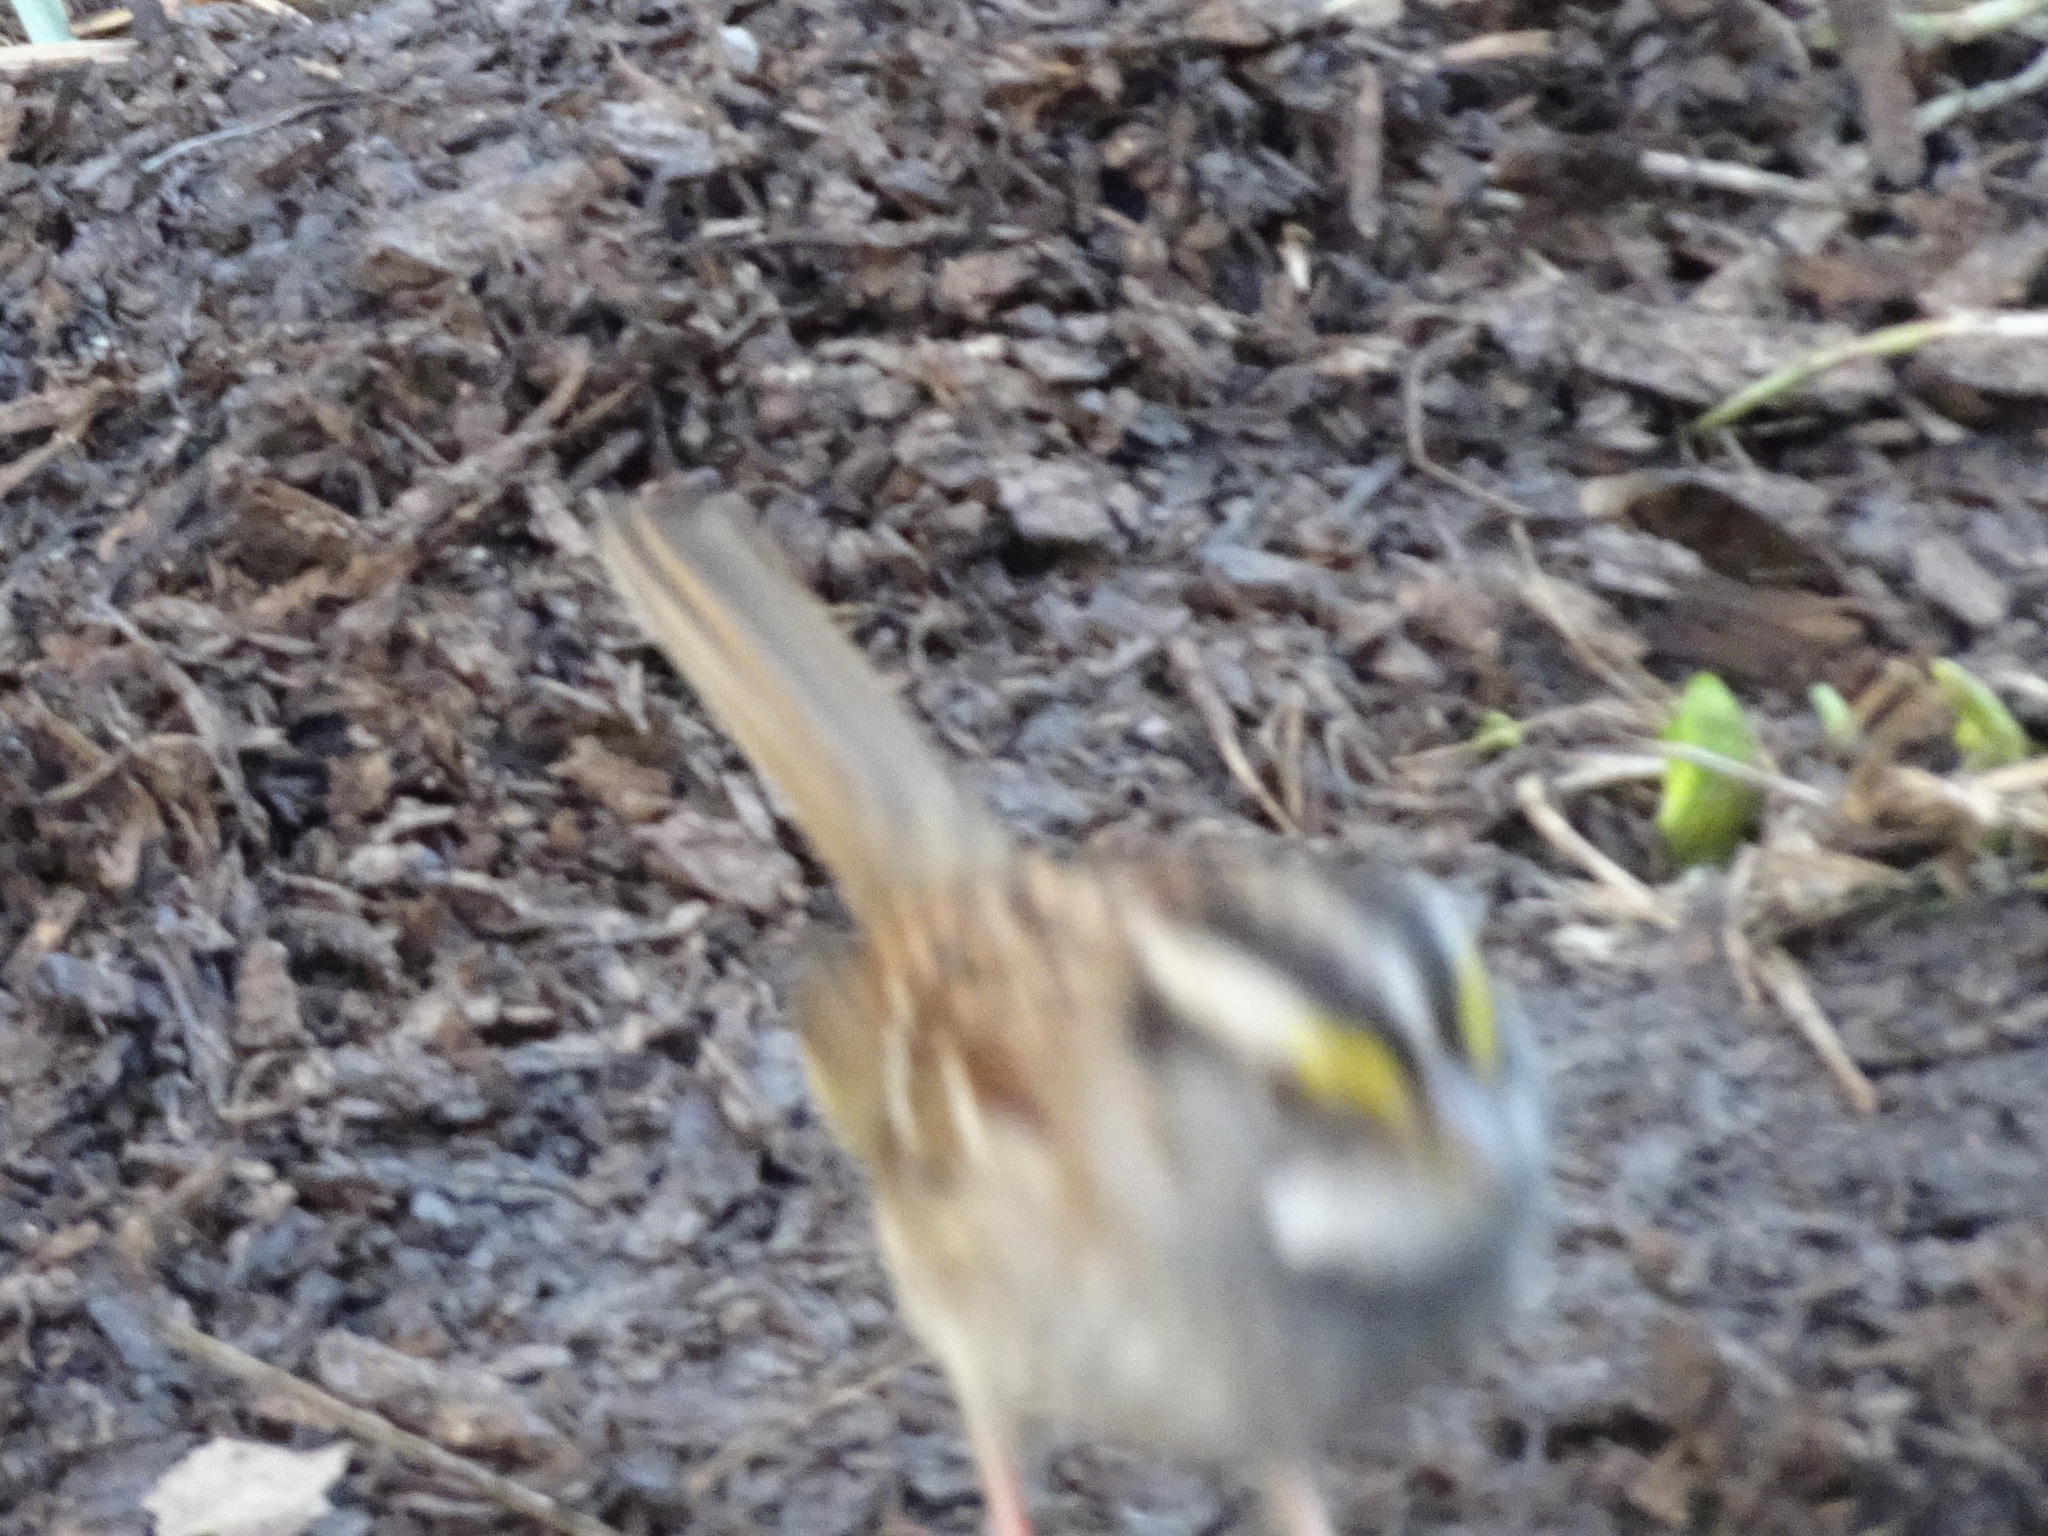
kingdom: Animalia
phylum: Chordata
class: Aves
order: Passeriformes
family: Passerellidae
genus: Zonotrichia
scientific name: Zonotrichia albicollis
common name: White-throated sparrow
